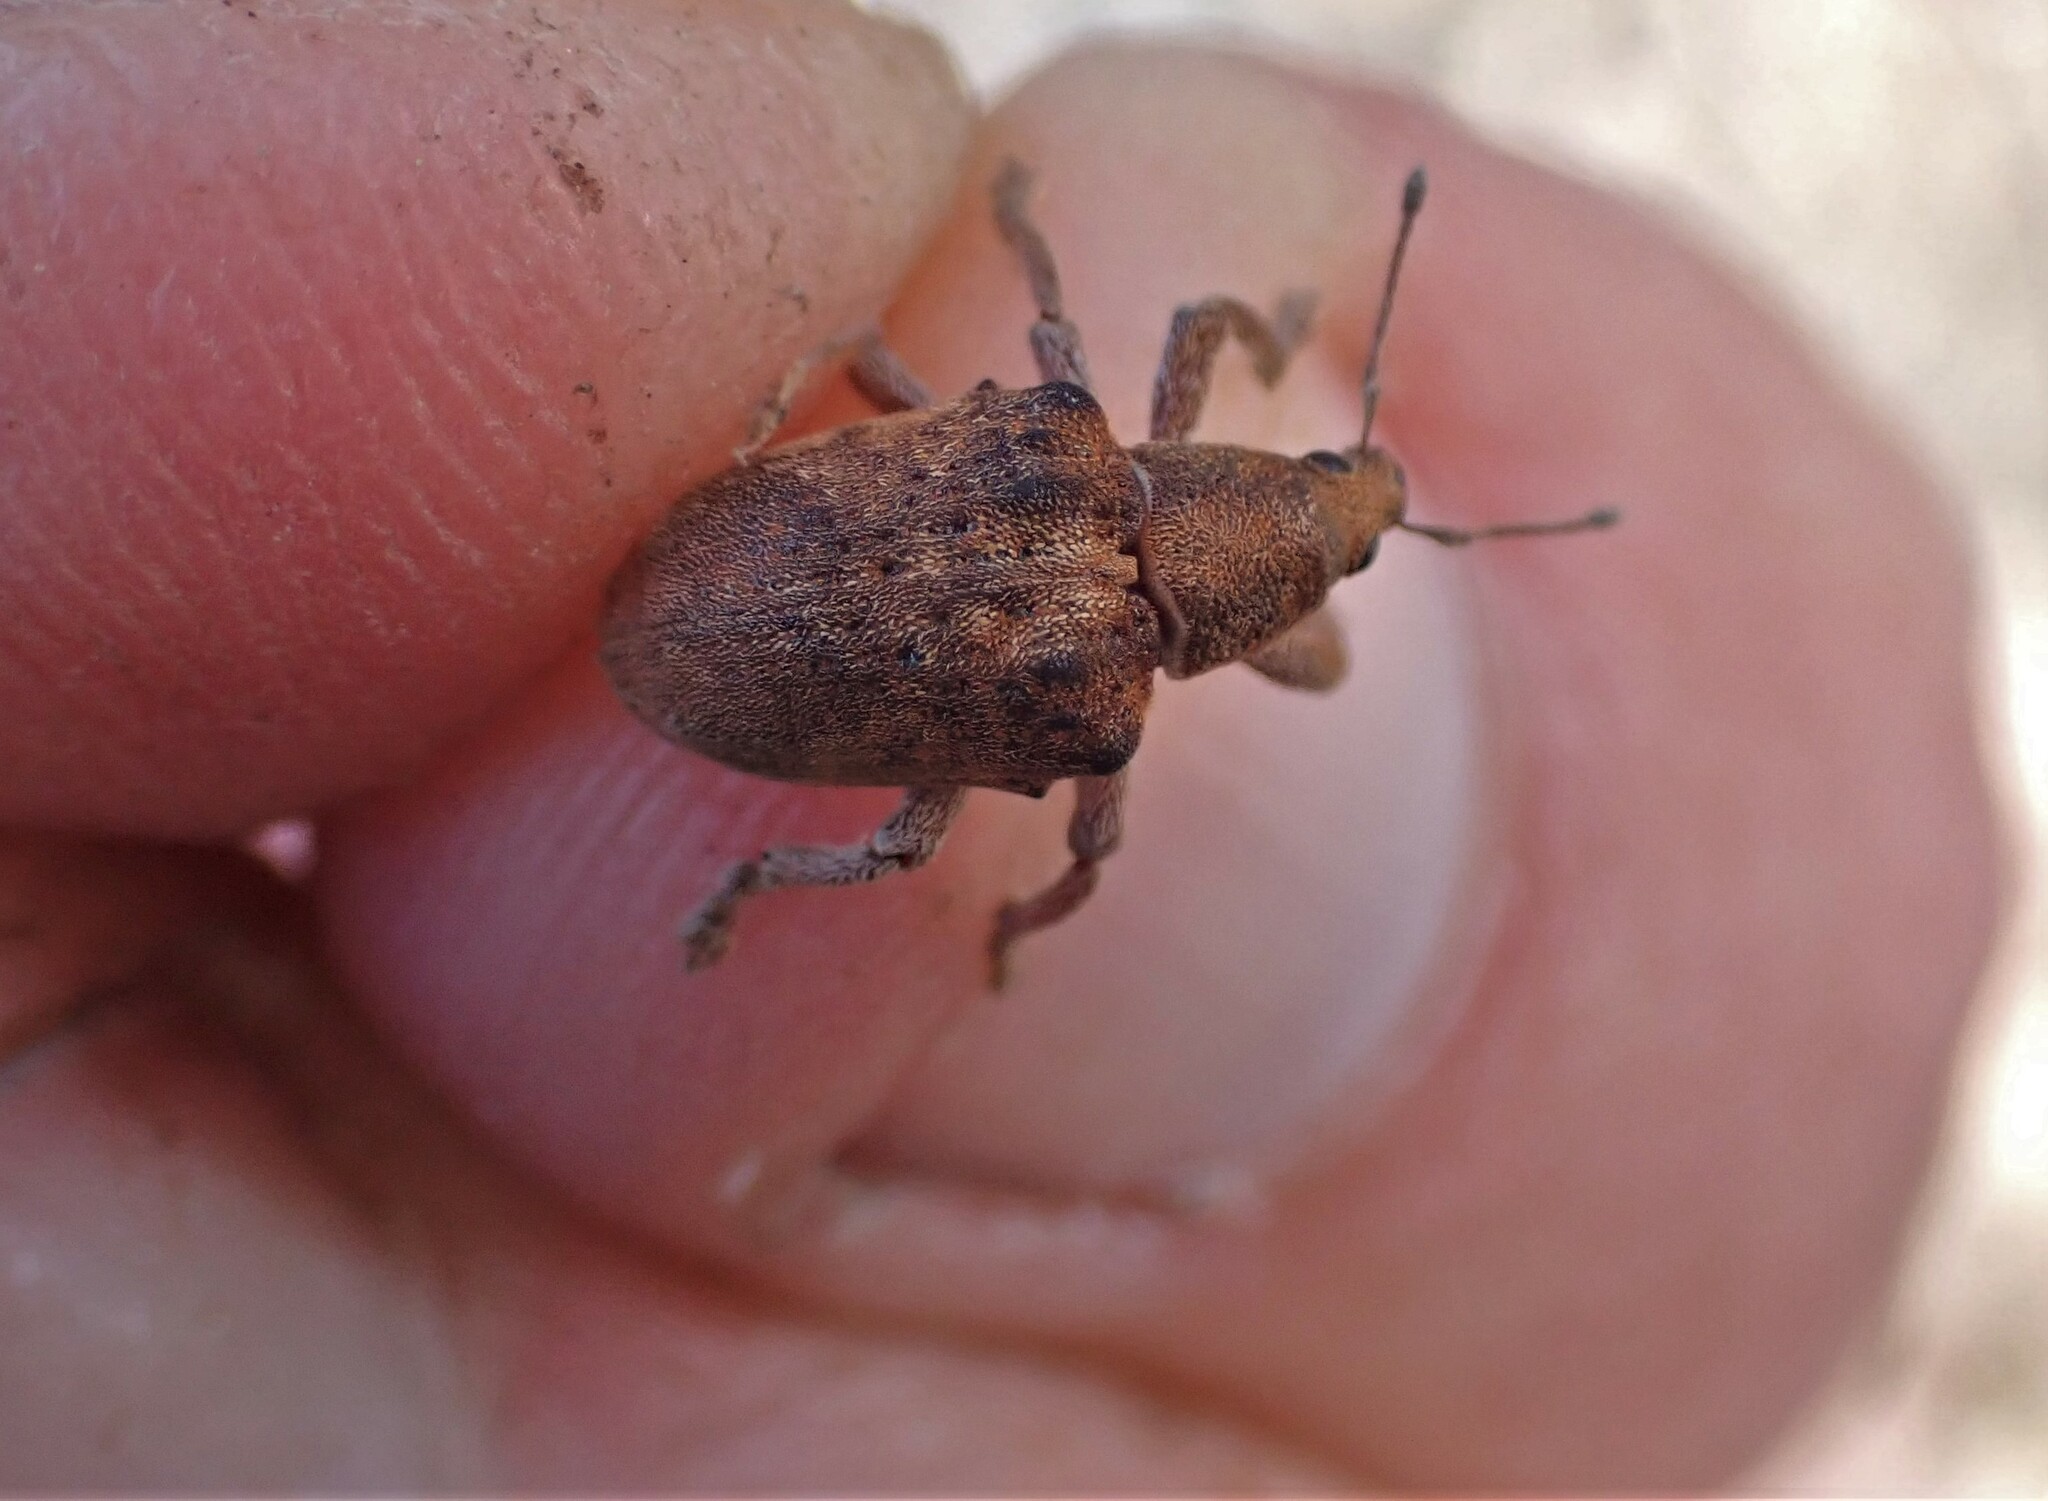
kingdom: Animalia
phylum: Arthropoda
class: Insecta
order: Coleoptera
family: Curculionidae
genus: Gonipterus
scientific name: Gonipterus platensis
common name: Eucalyptus snout beetle
